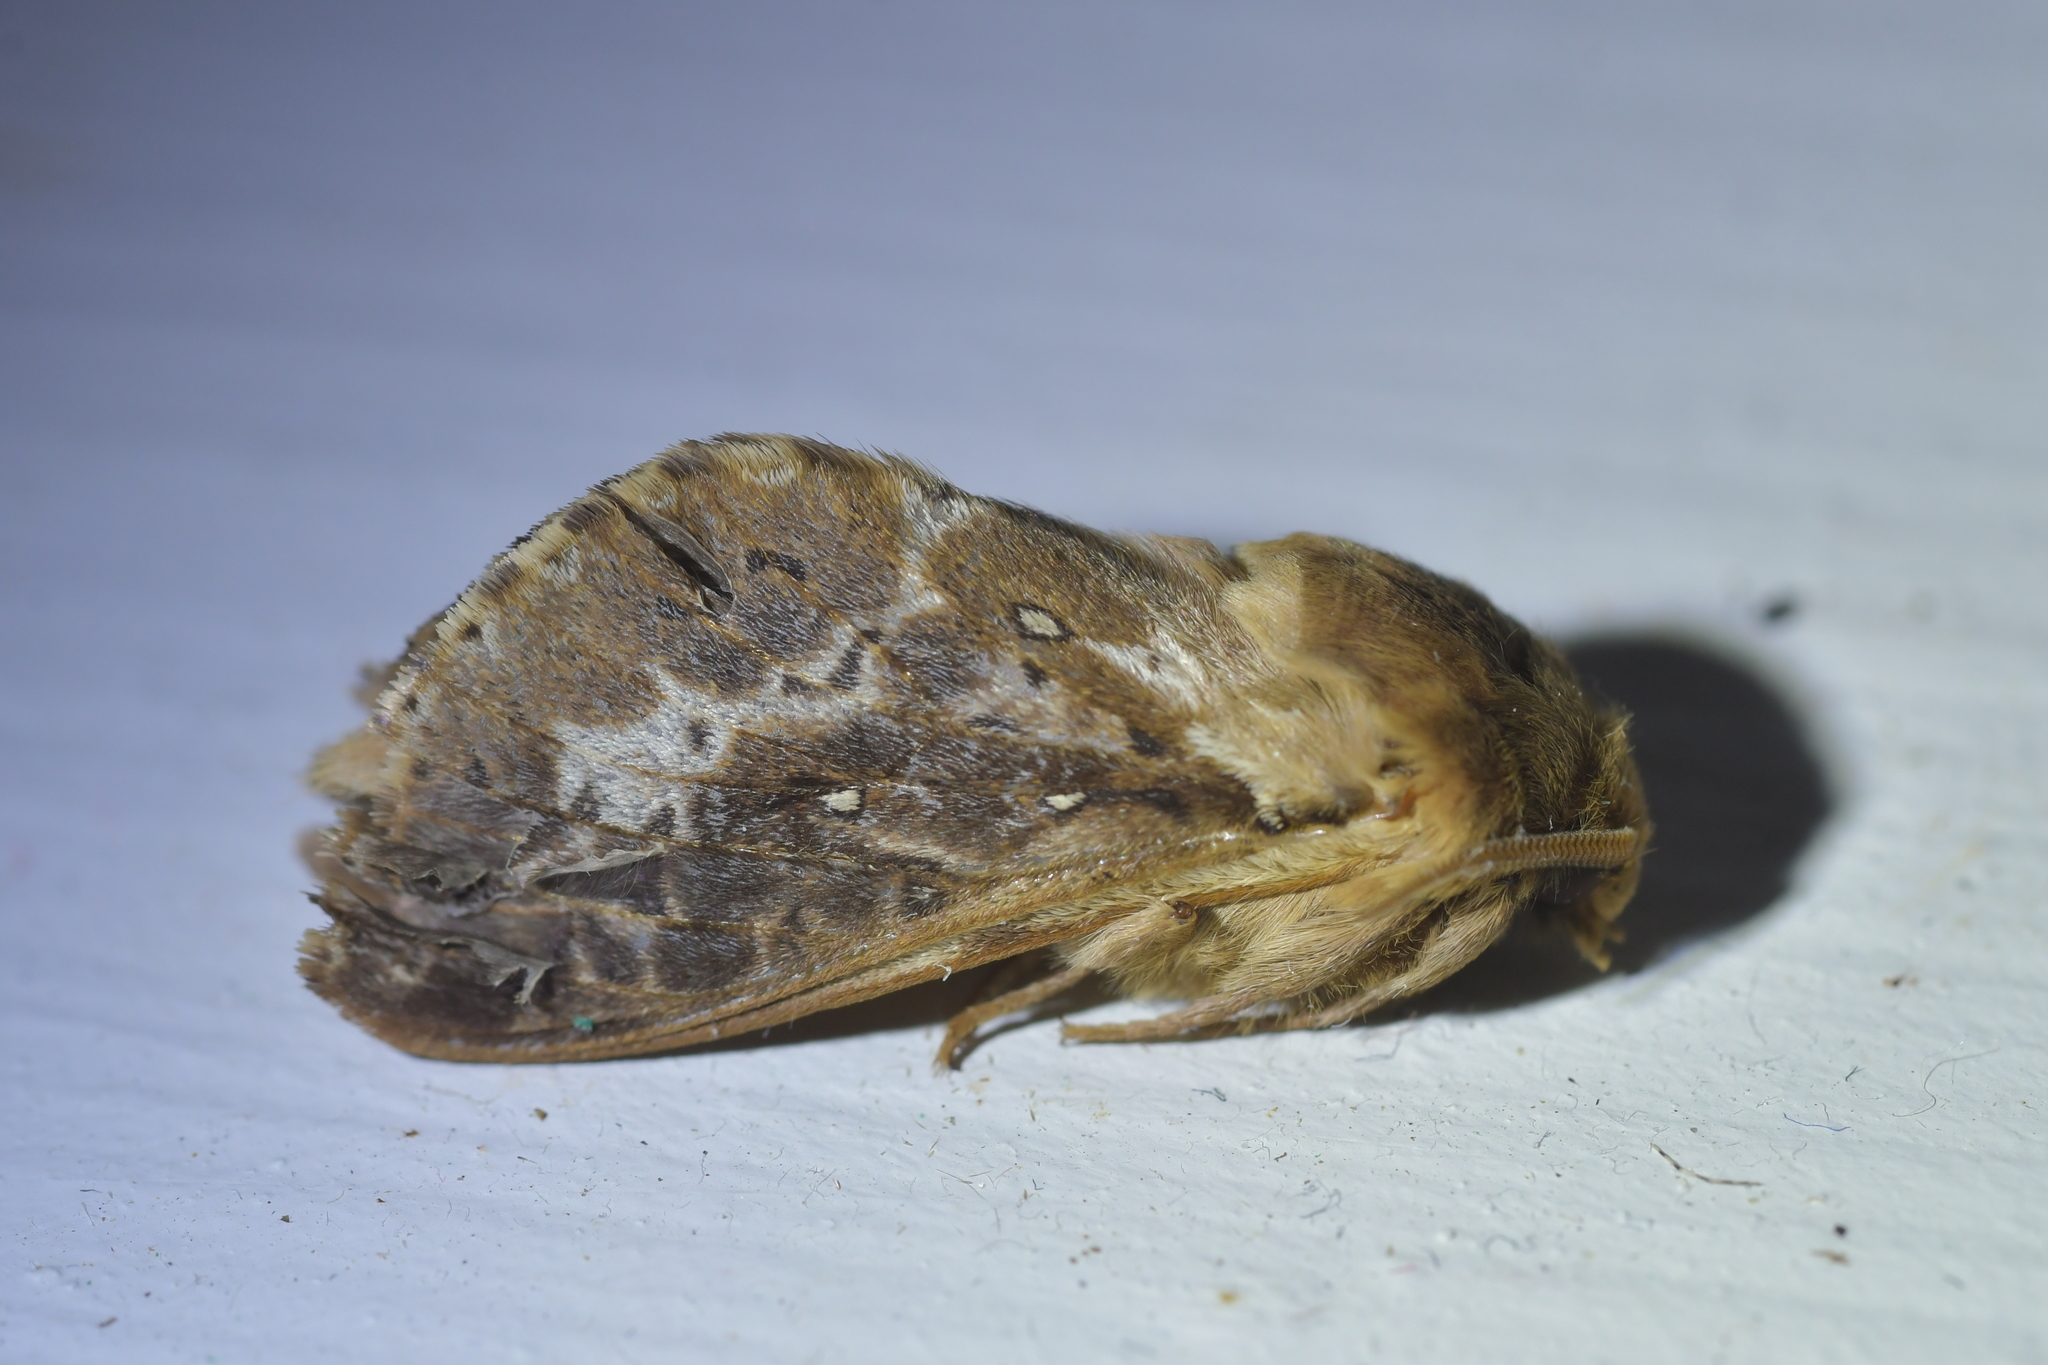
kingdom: Animalia
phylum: Arthropoda
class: Insecta
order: Lepidoptera
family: Hepialidae
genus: Wiseana
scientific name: Wiseana cervinata
